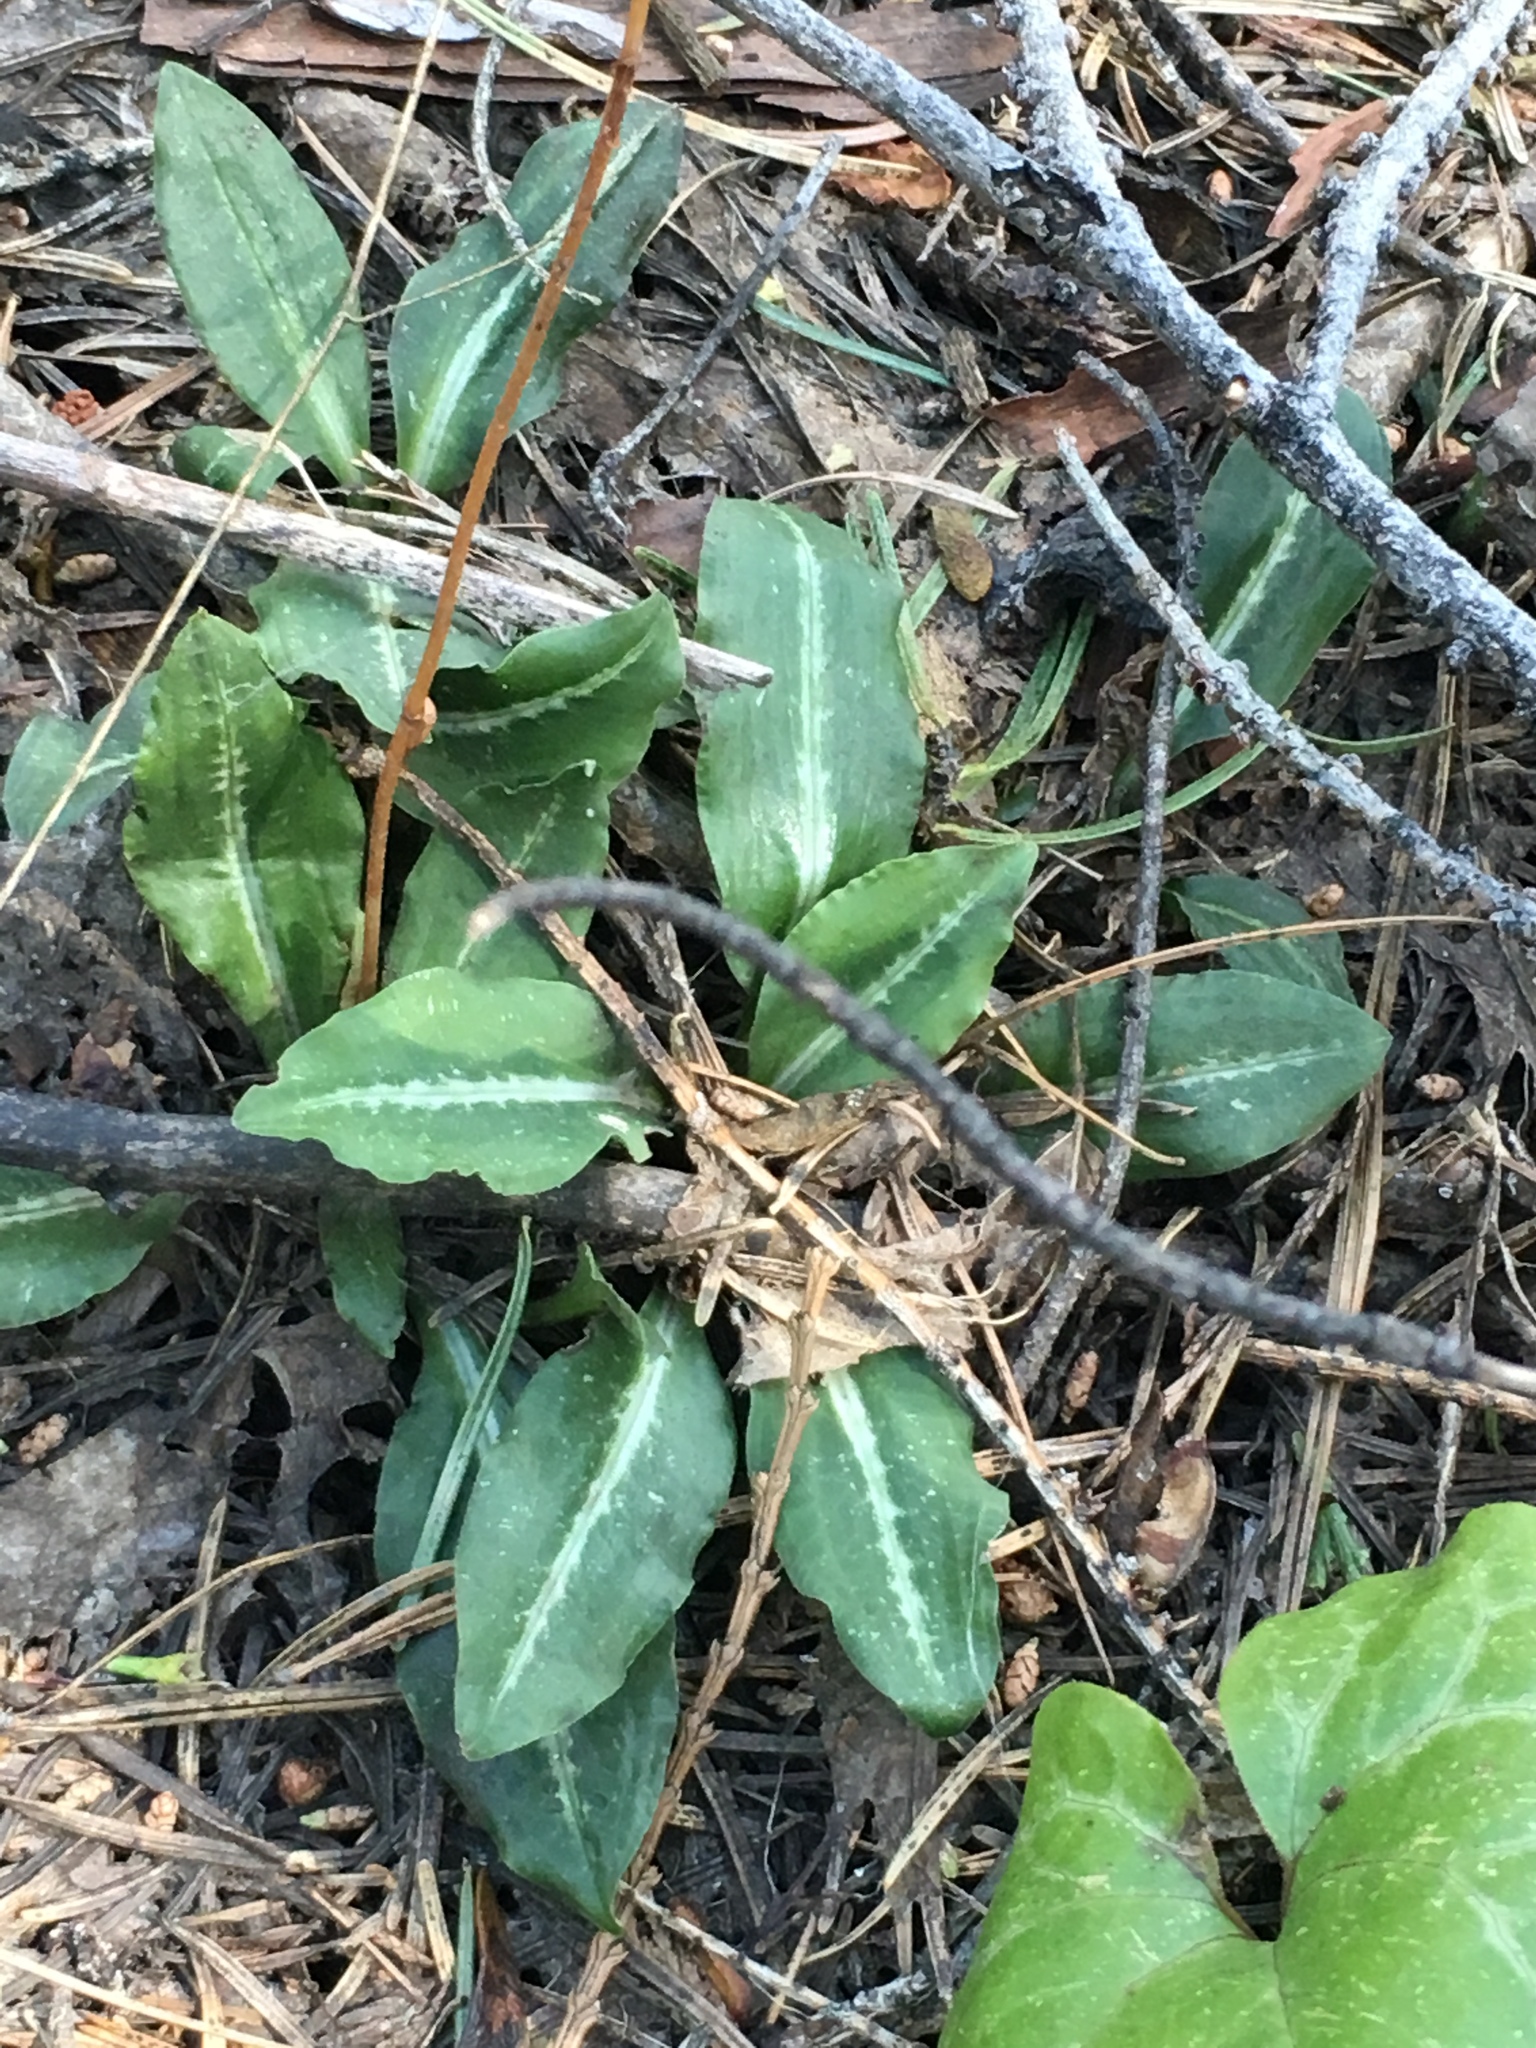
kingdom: Plantae
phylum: Tracheophyta
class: Liliopsida
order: Asparagales
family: Orchidaceae
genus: Goodyera
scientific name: Goodyera oblongifolia
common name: Giant rattlesnake-plantain
